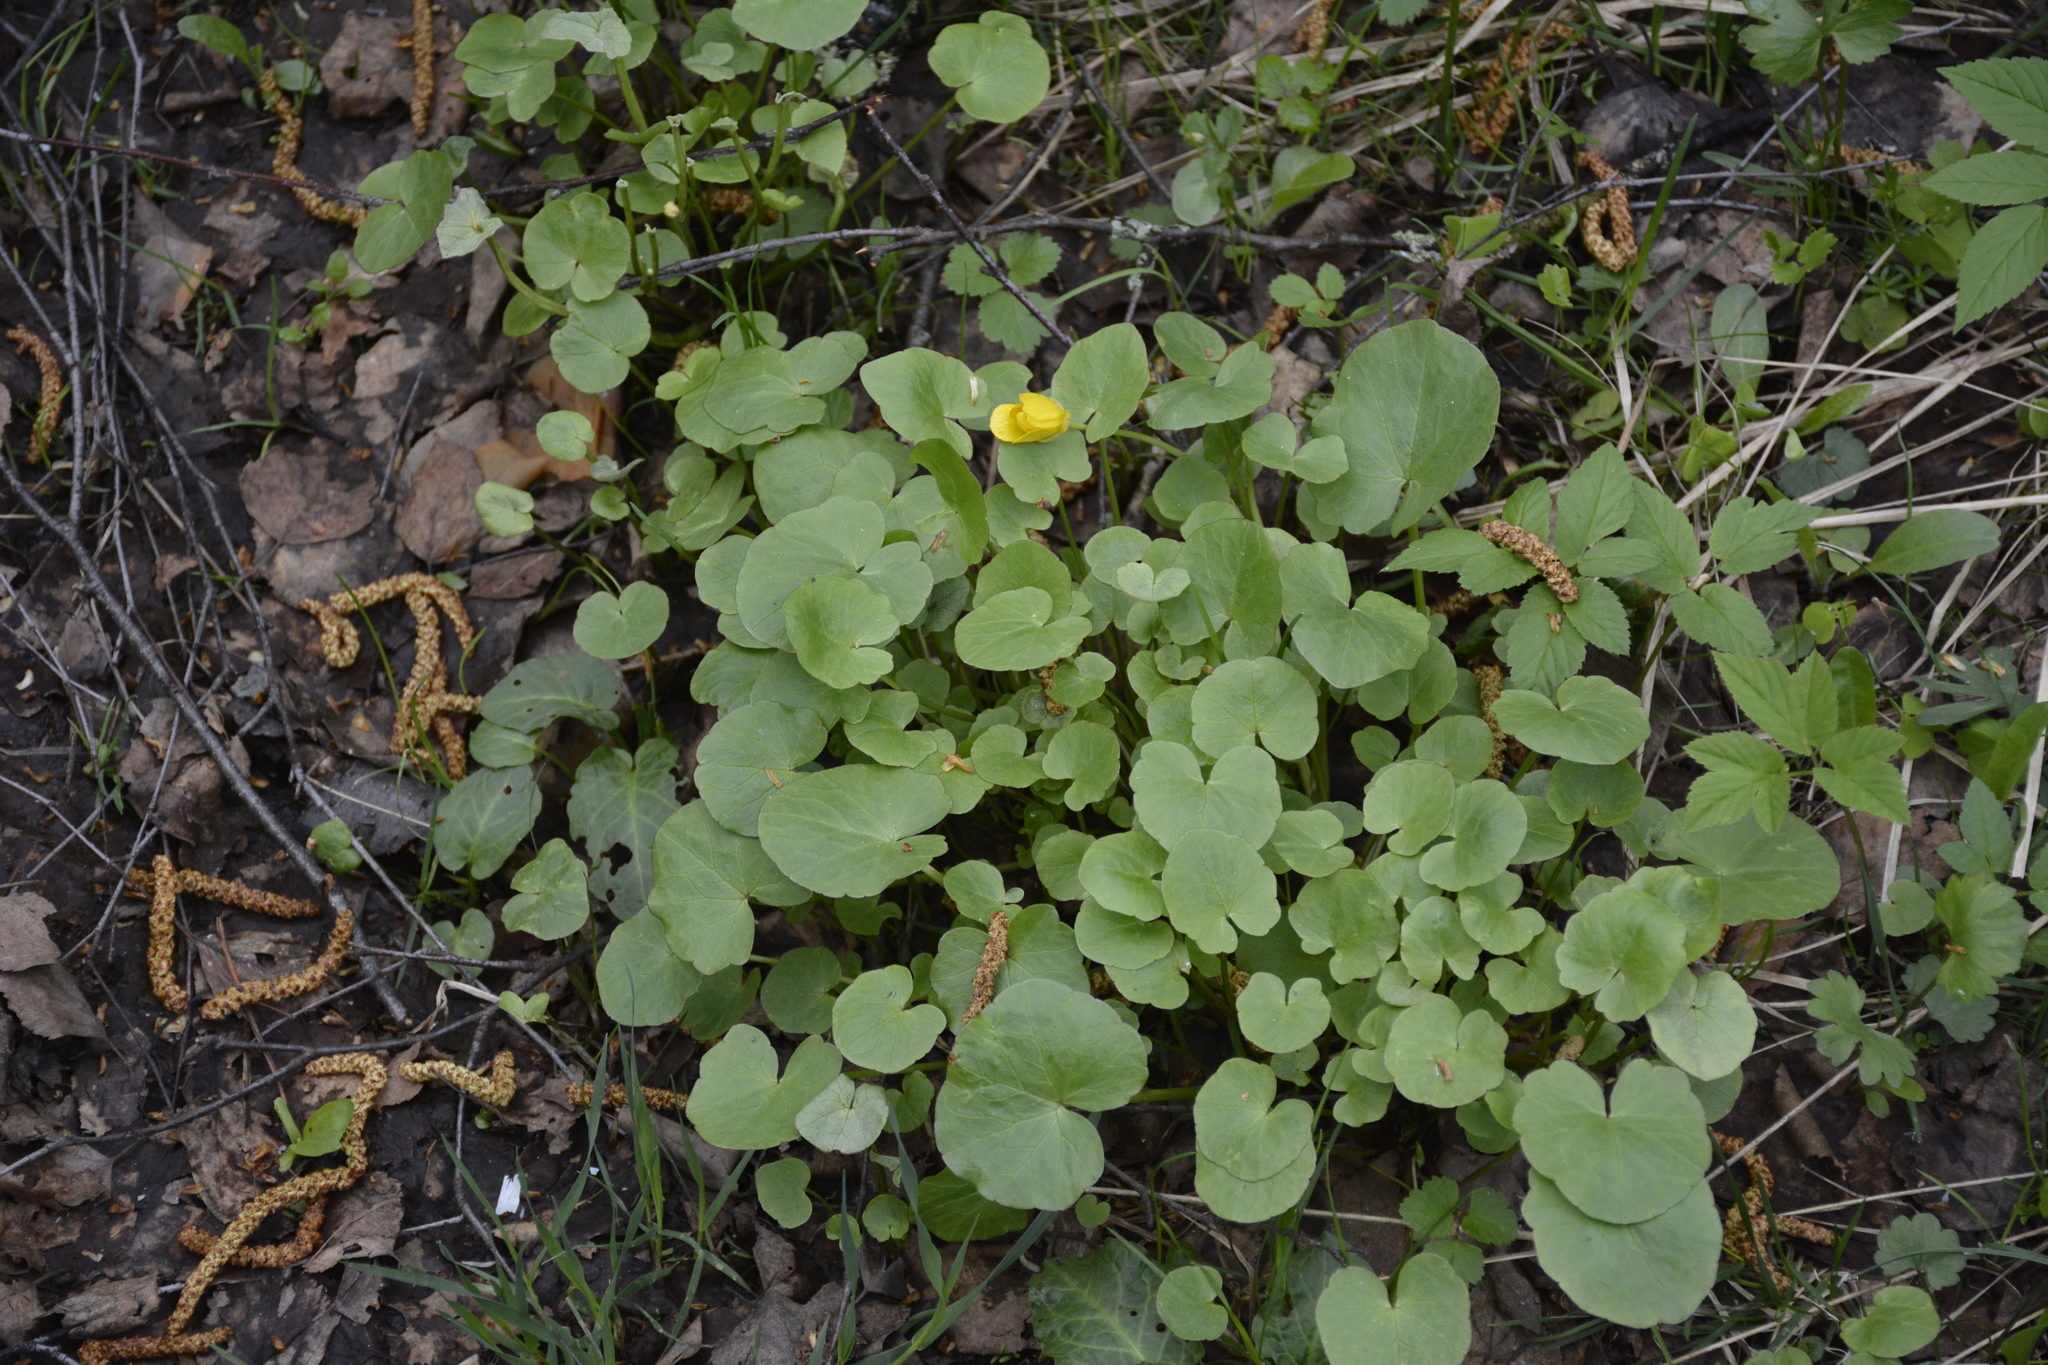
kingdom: Plantae
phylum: Tracheophyta
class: Magnoliopsida
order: Ranunculales
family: Ranunculaceae
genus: Ficaria
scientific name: Ficaria verna
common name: Lesser celandine
